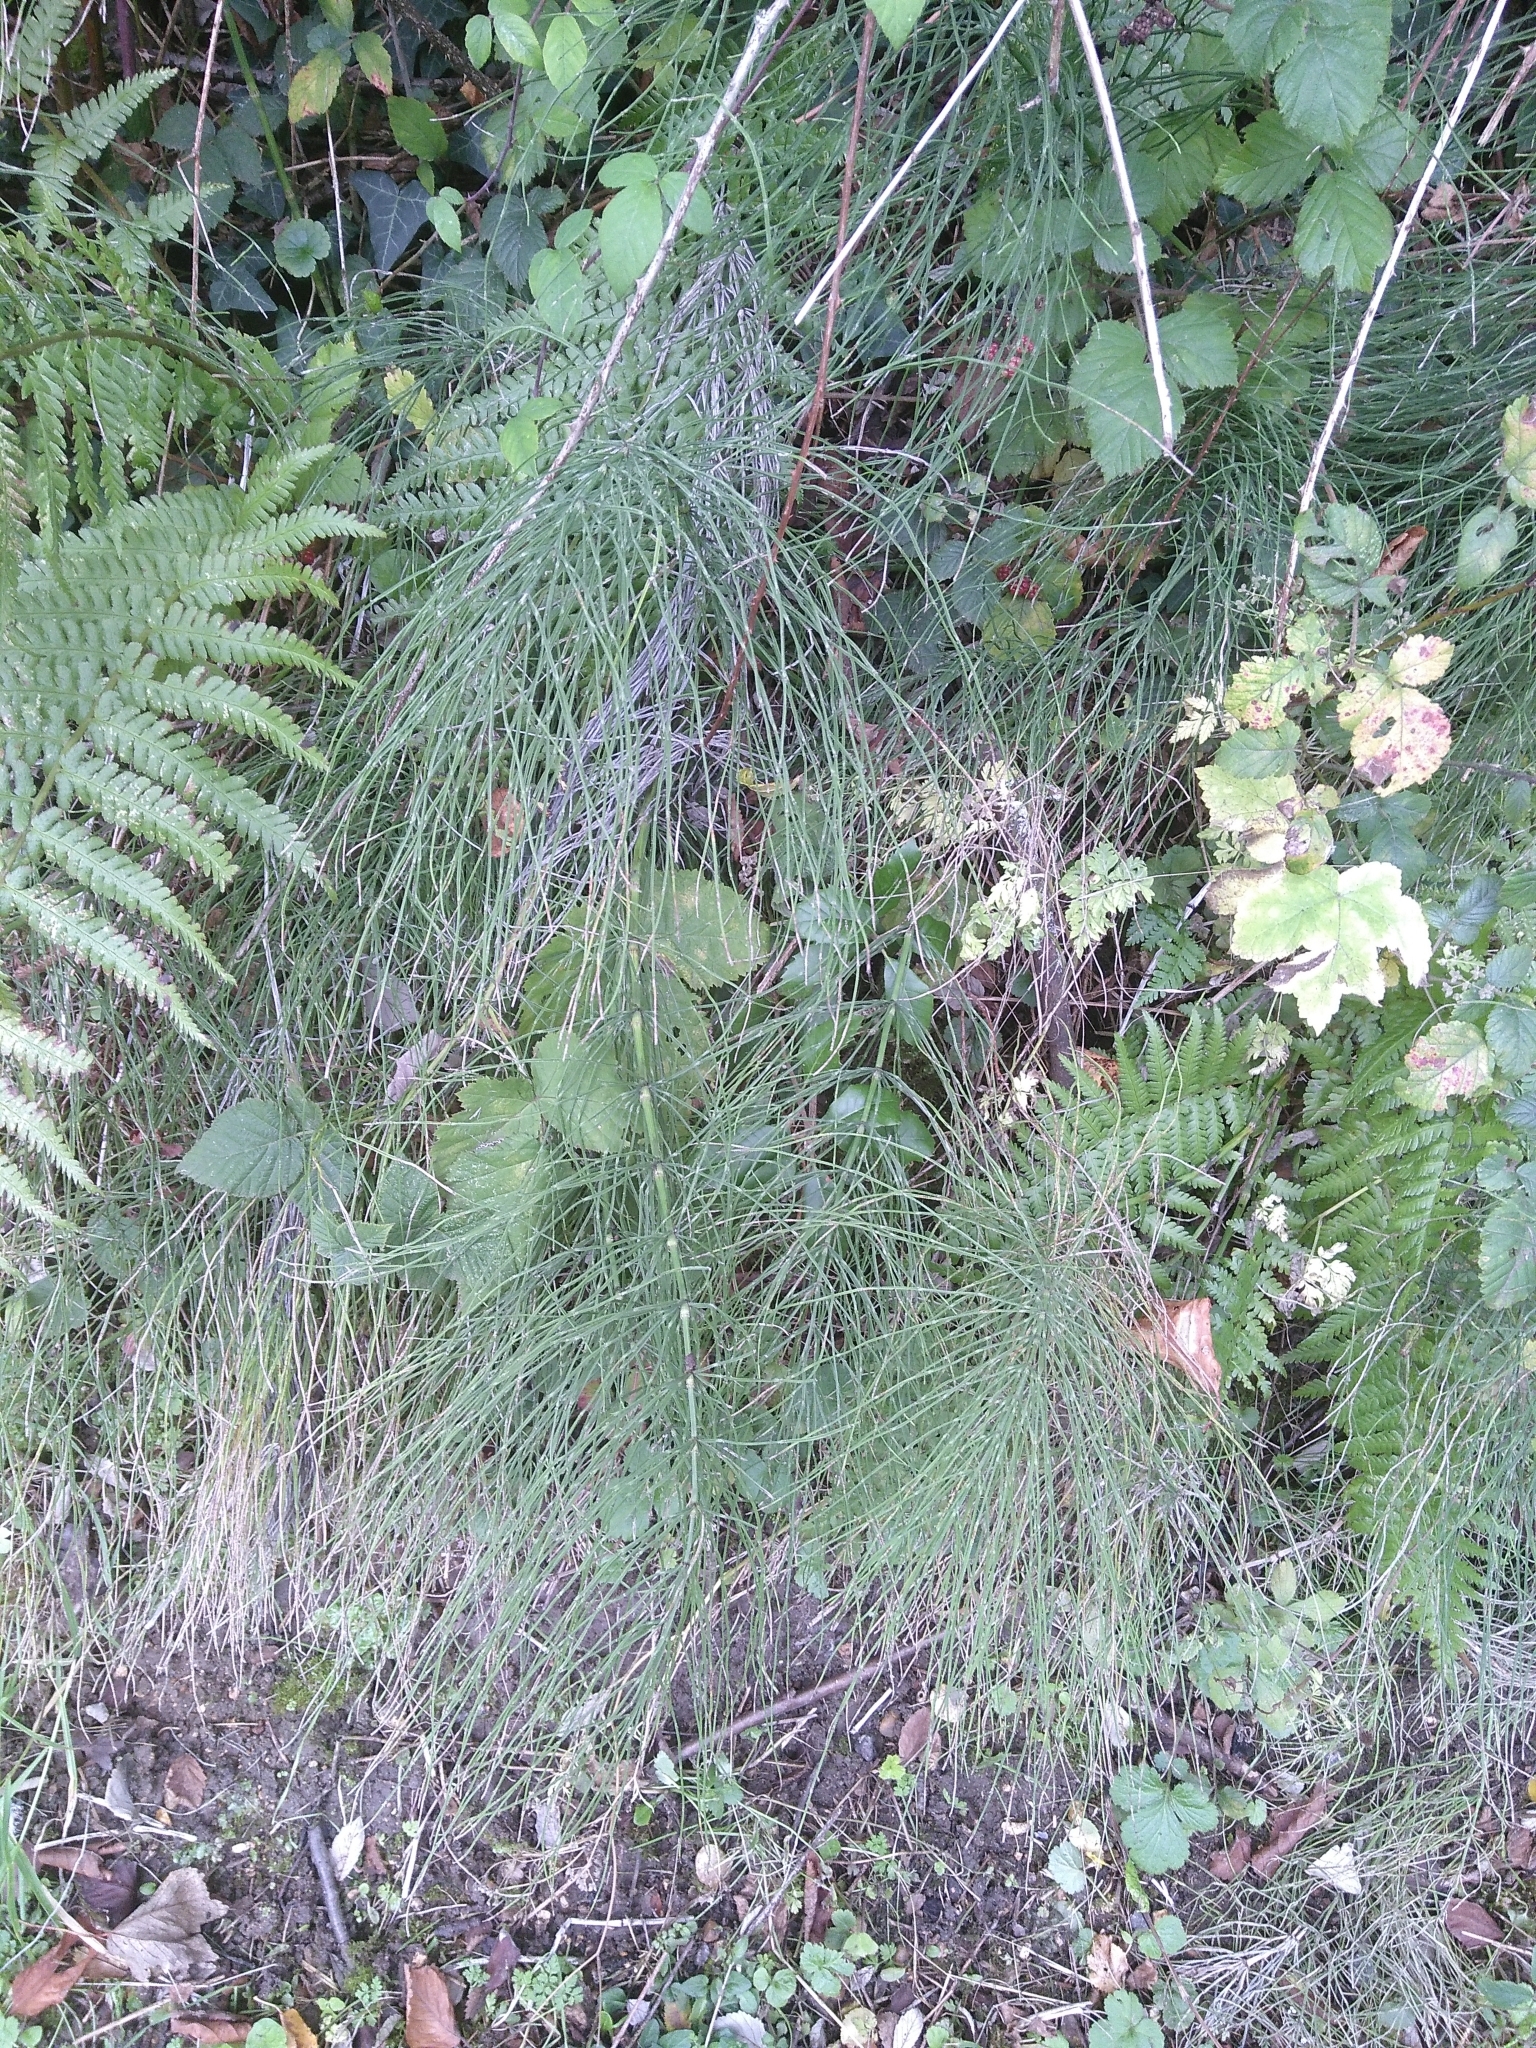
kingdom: Plantae
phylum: Tracheophyta
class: Polypodiopsida
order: Equisetales
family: Equisetaceae
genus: Equisetum
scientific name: Equisetum arvense
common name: Field horsetail
